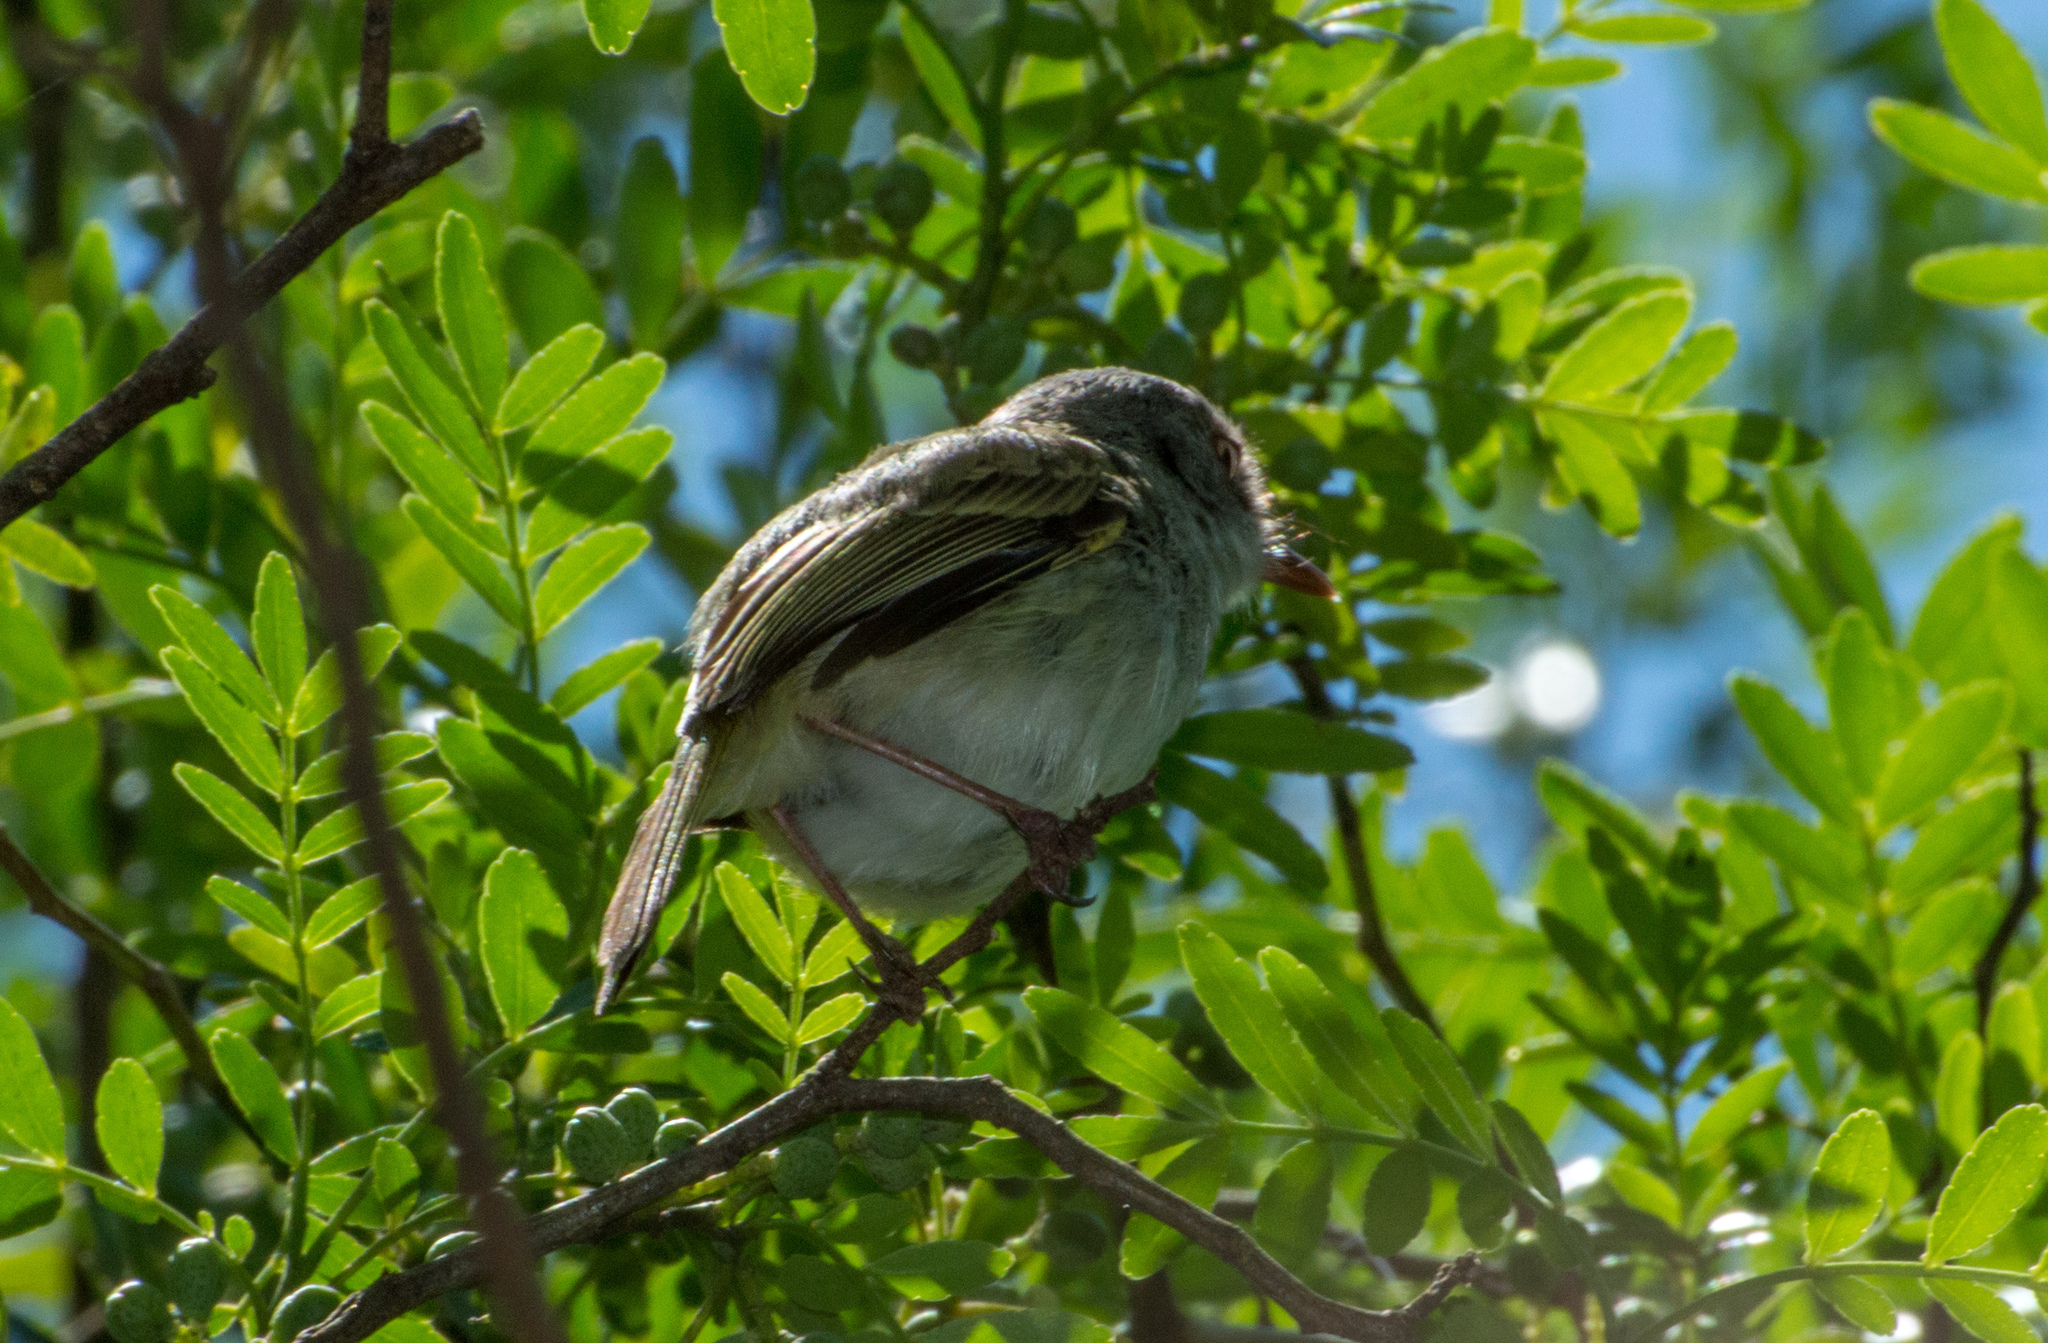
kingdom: Animalia
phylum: Chordata
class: Aves
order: Passeriformes
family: Tyrannidae
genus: Hemitriccus
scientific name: Hemitriccus margaritaceiventer
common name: Pearly-vented tody-tyrant
